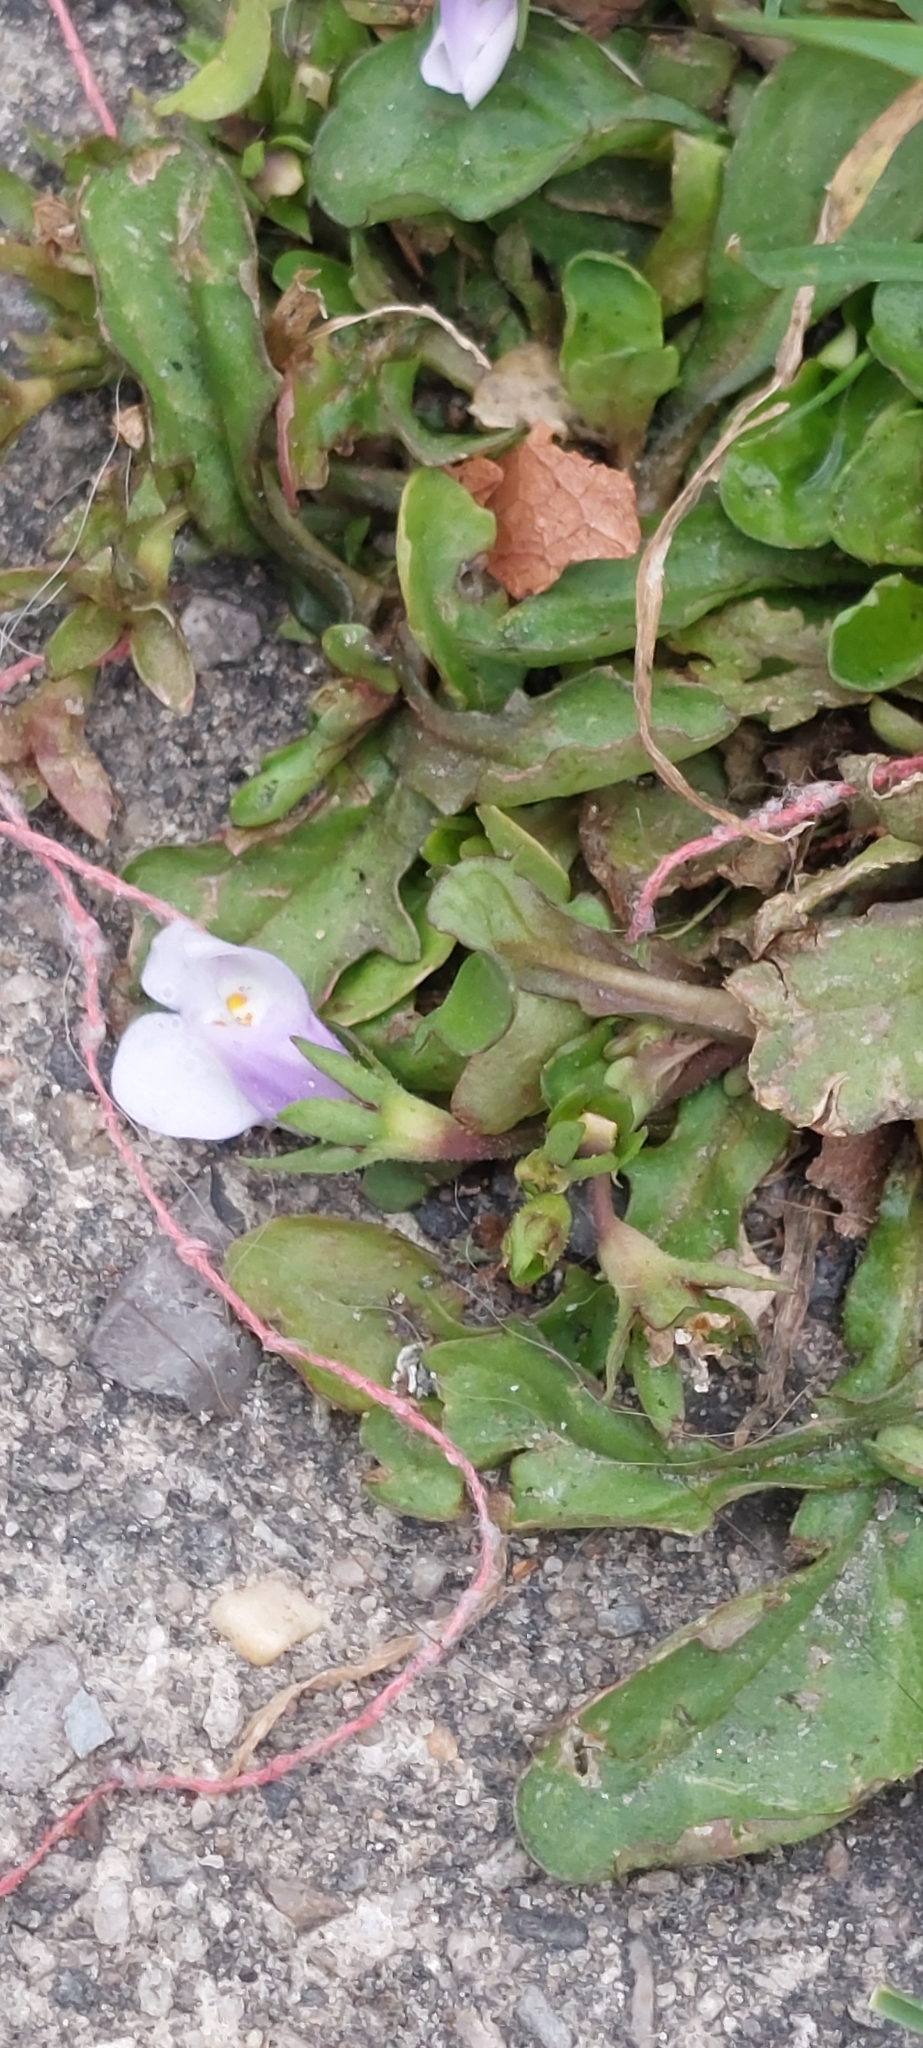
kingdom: Plantae
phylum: Tracheophyta
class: Magnoliopsida
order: Lamiales
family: Mazaceae
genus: Mazus
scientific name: Mazus pumilus
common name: Japanese mazus
